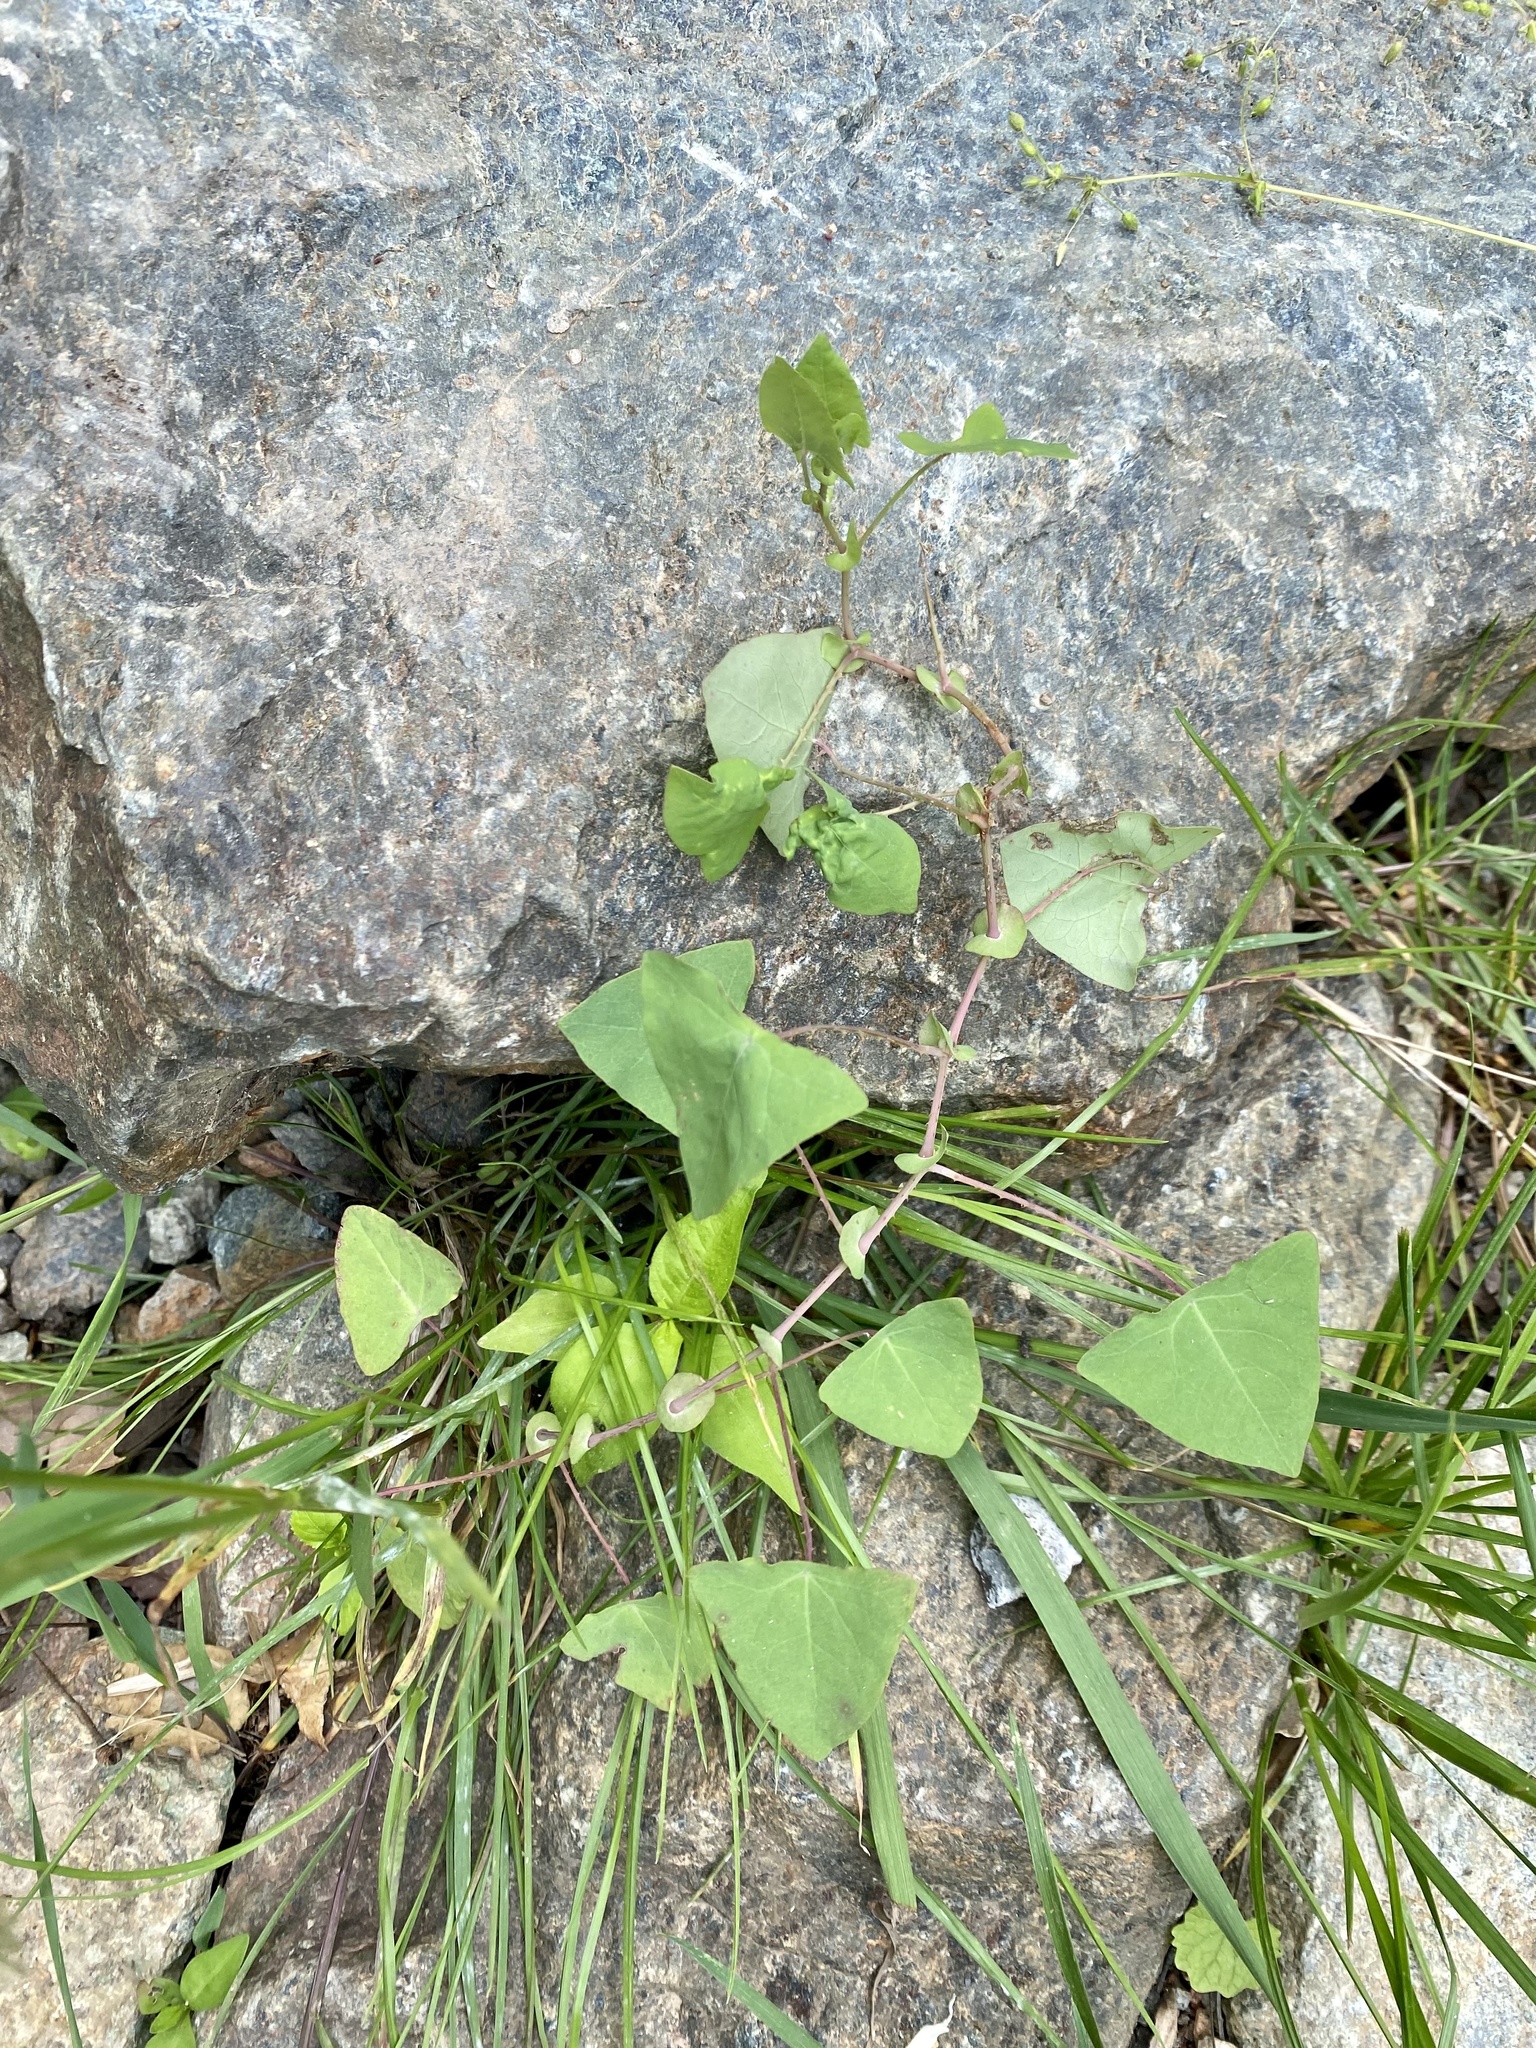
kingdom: Plantae
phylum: Tracheophyta
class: Magnoliopsida
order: Caryophyllales
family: Polygonaceae
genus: Persicaria
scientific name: Persicaria perfoliata
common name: Asiatic tearthumb
